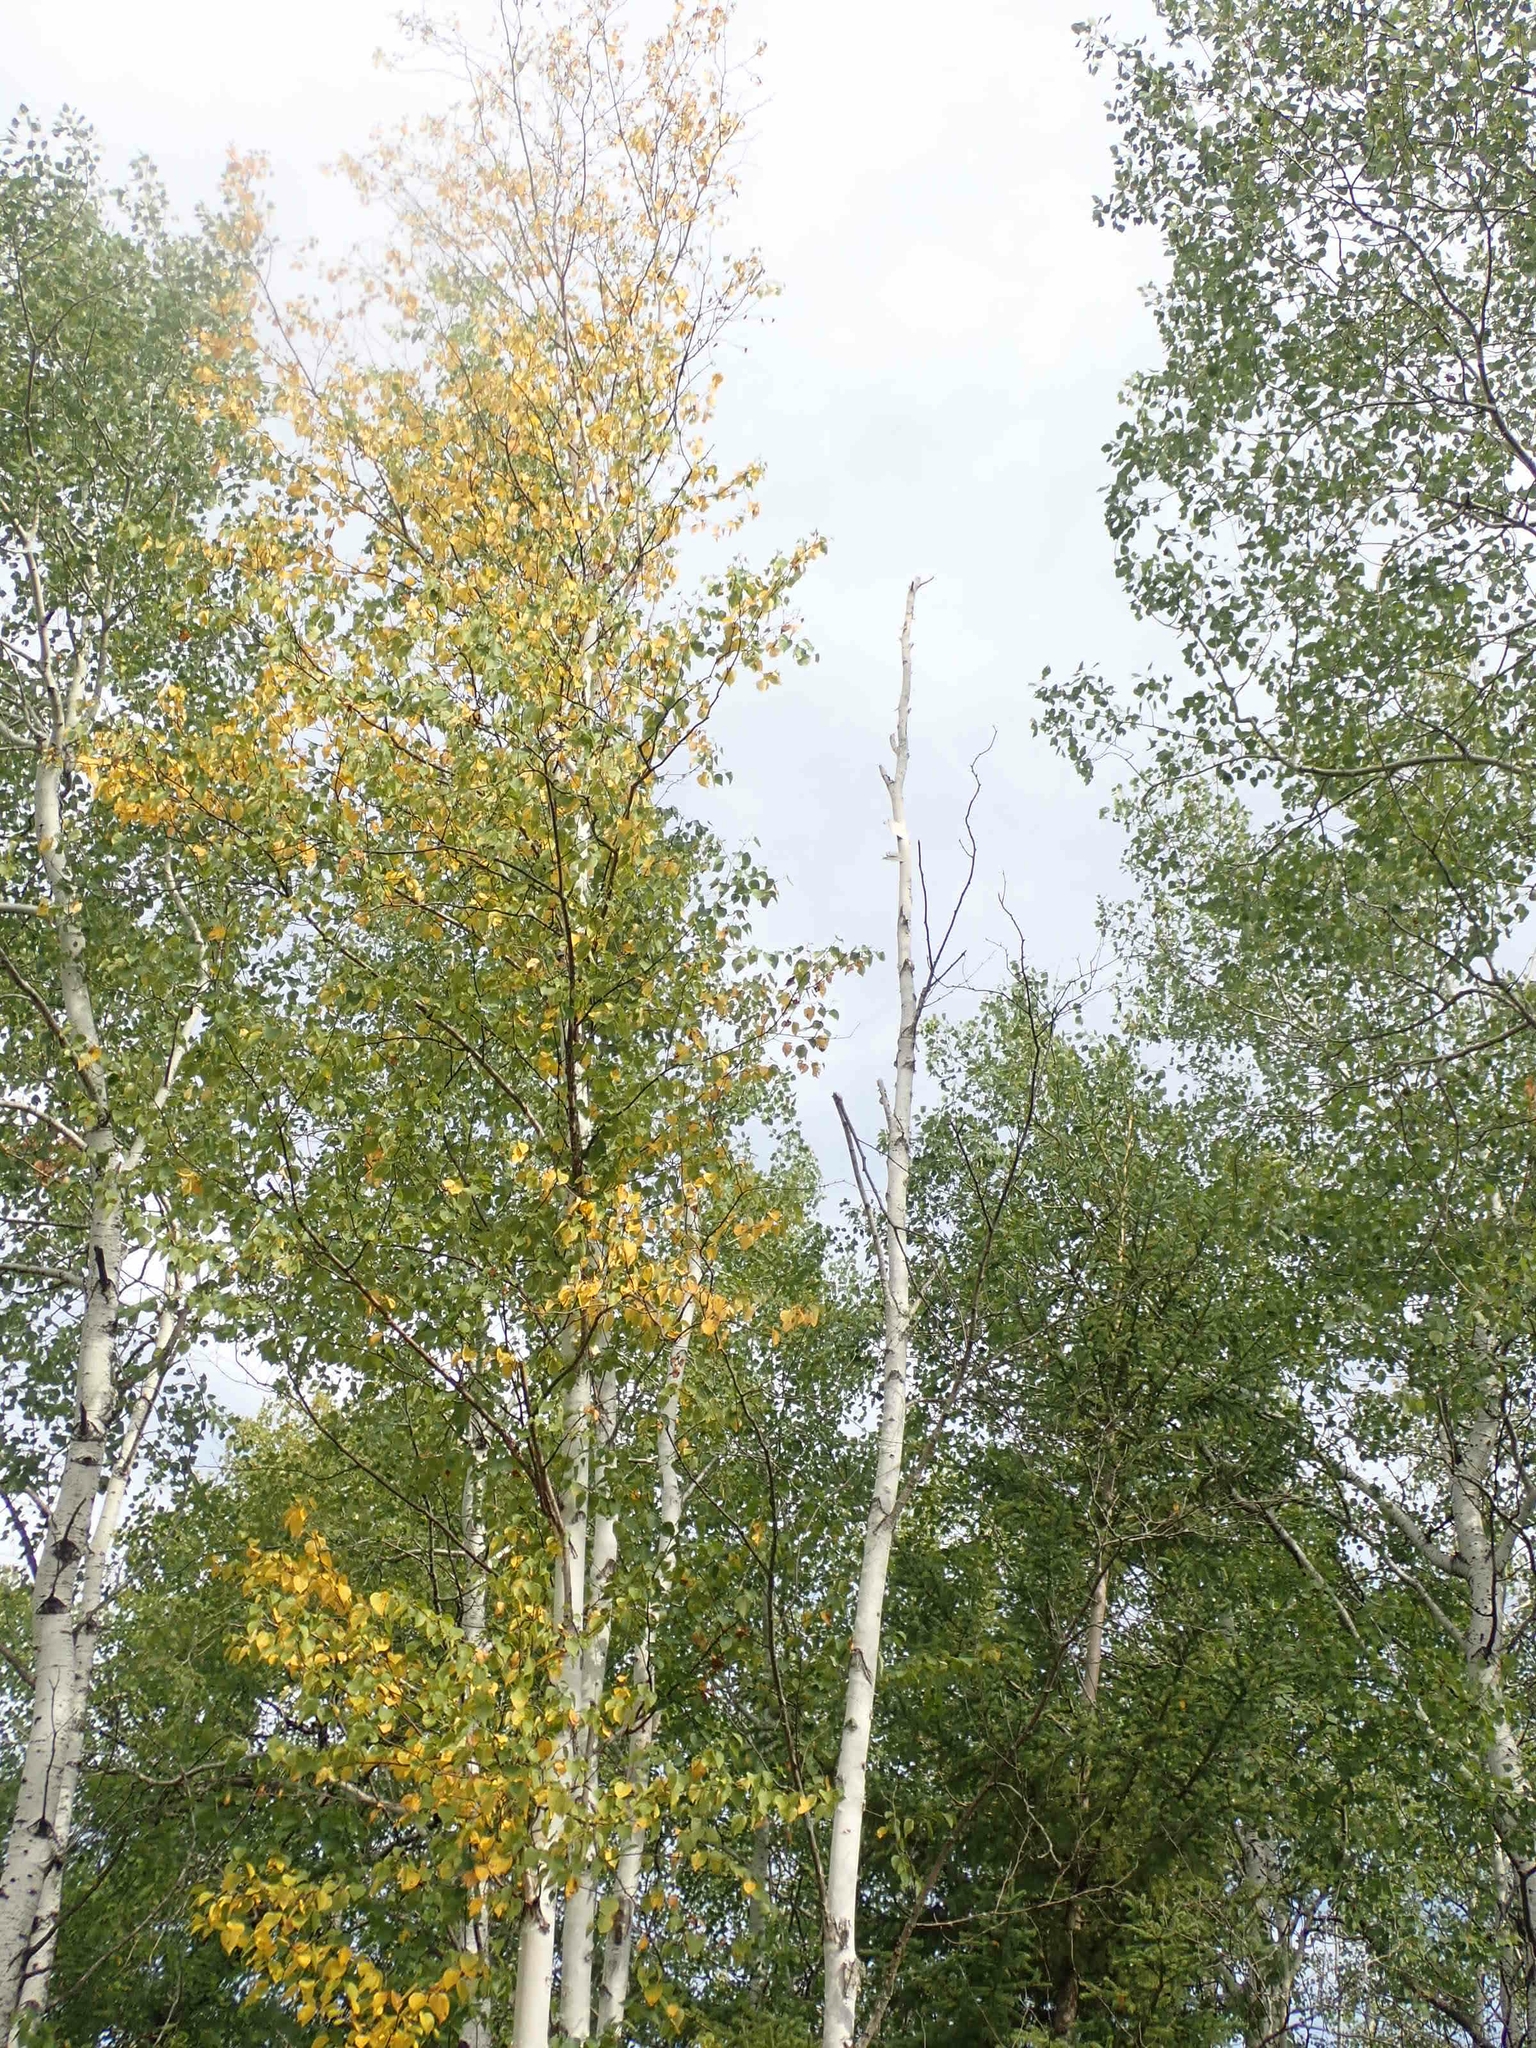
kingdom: Plantae
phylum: Tracheophyta
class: Magnoliopsida
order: Fagales
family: Betulaceae
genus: Betula
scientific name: Betula papyrifera
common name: Paper birch
